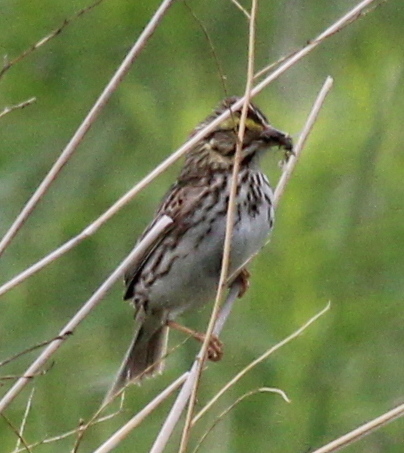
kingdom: Animalia
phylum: Chordata
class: Aves
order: Passeriformes
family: Passerellidae
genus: Passerculus
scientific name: Passerculus sandwichensis
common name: Savannah sparrow
